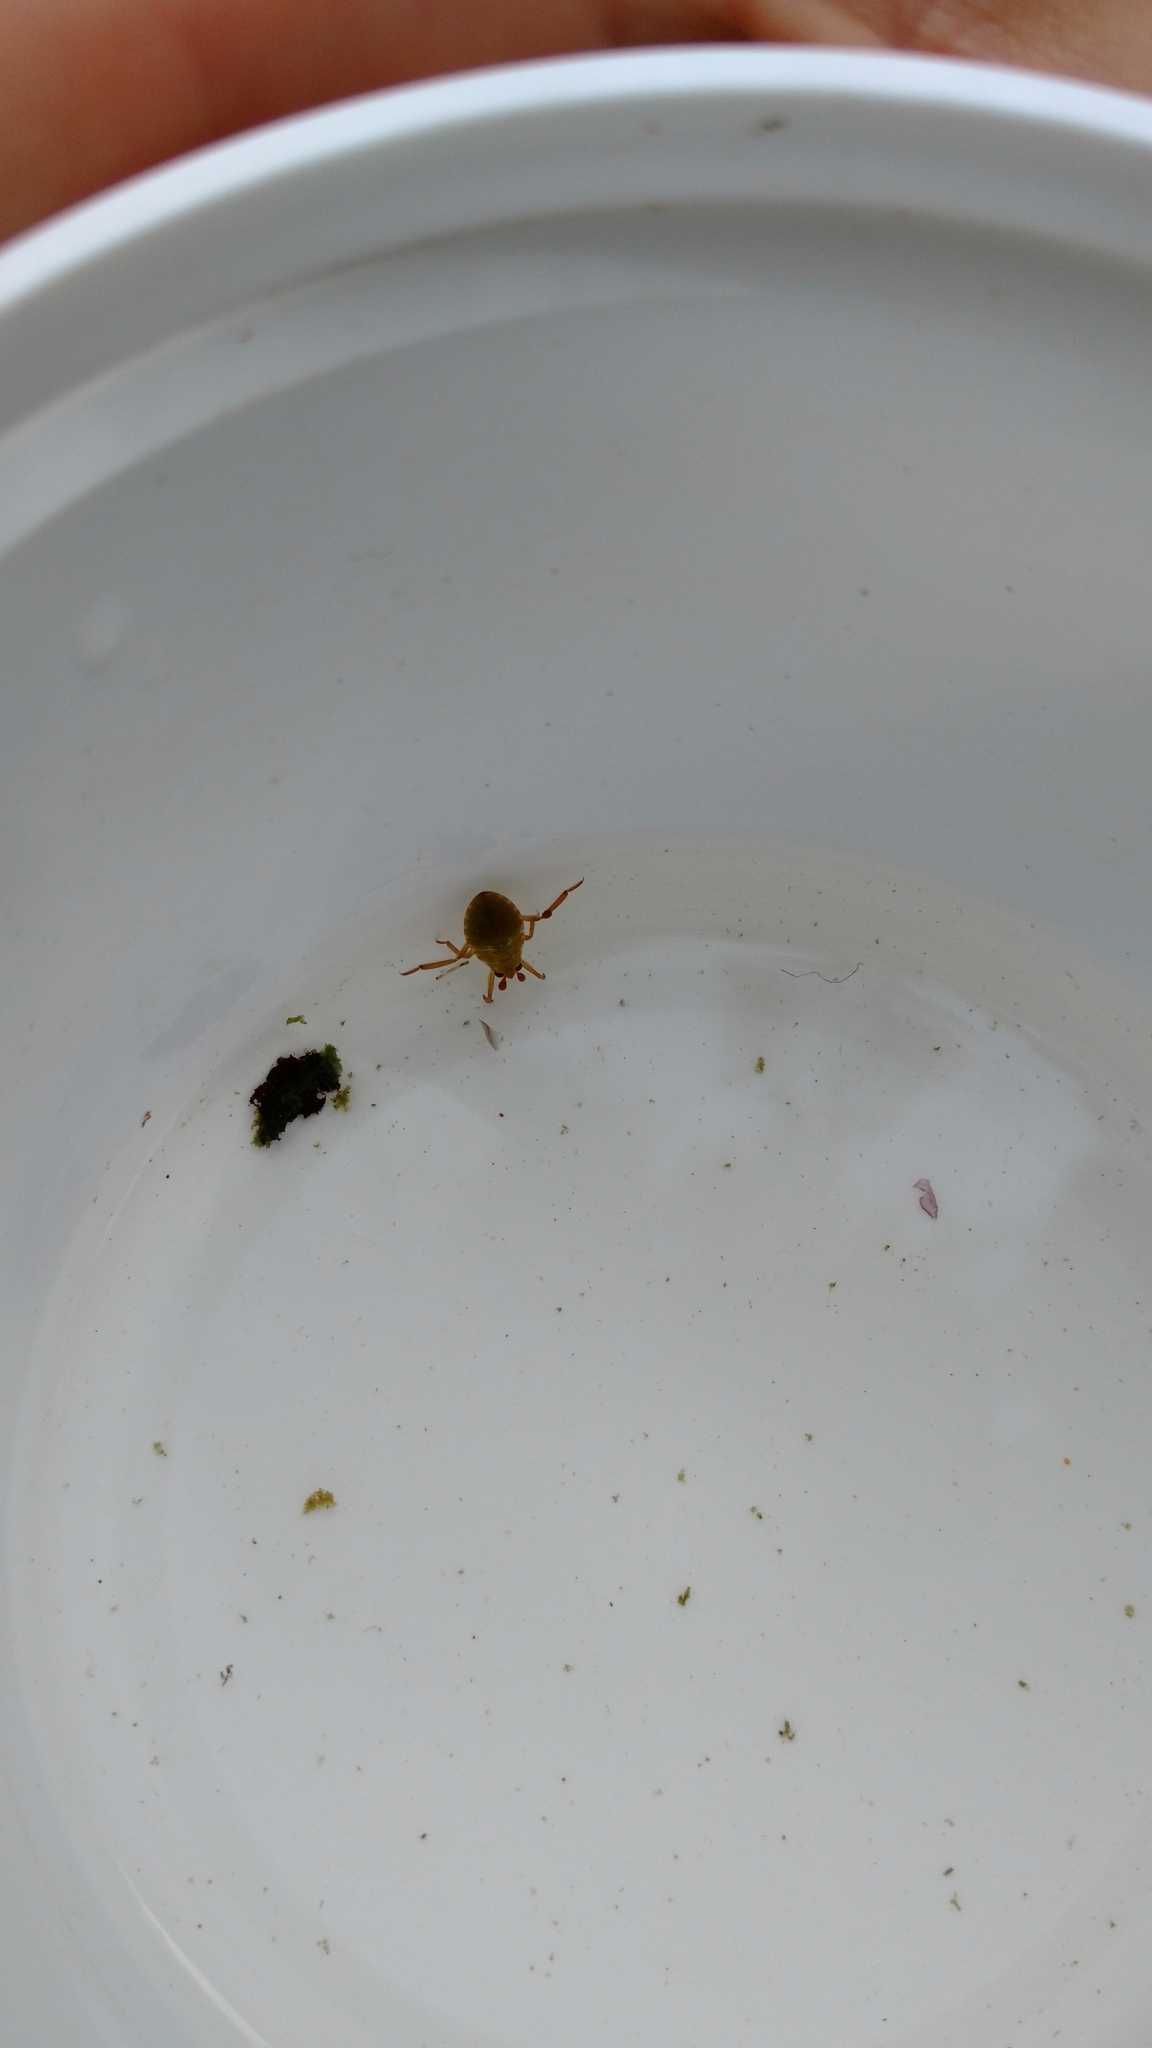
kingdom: Animalia
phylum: Arthropoda
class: Insecta
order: Hemiptera
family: Belostomatidae
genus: Belostoma
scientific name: Belostoma flumineum
